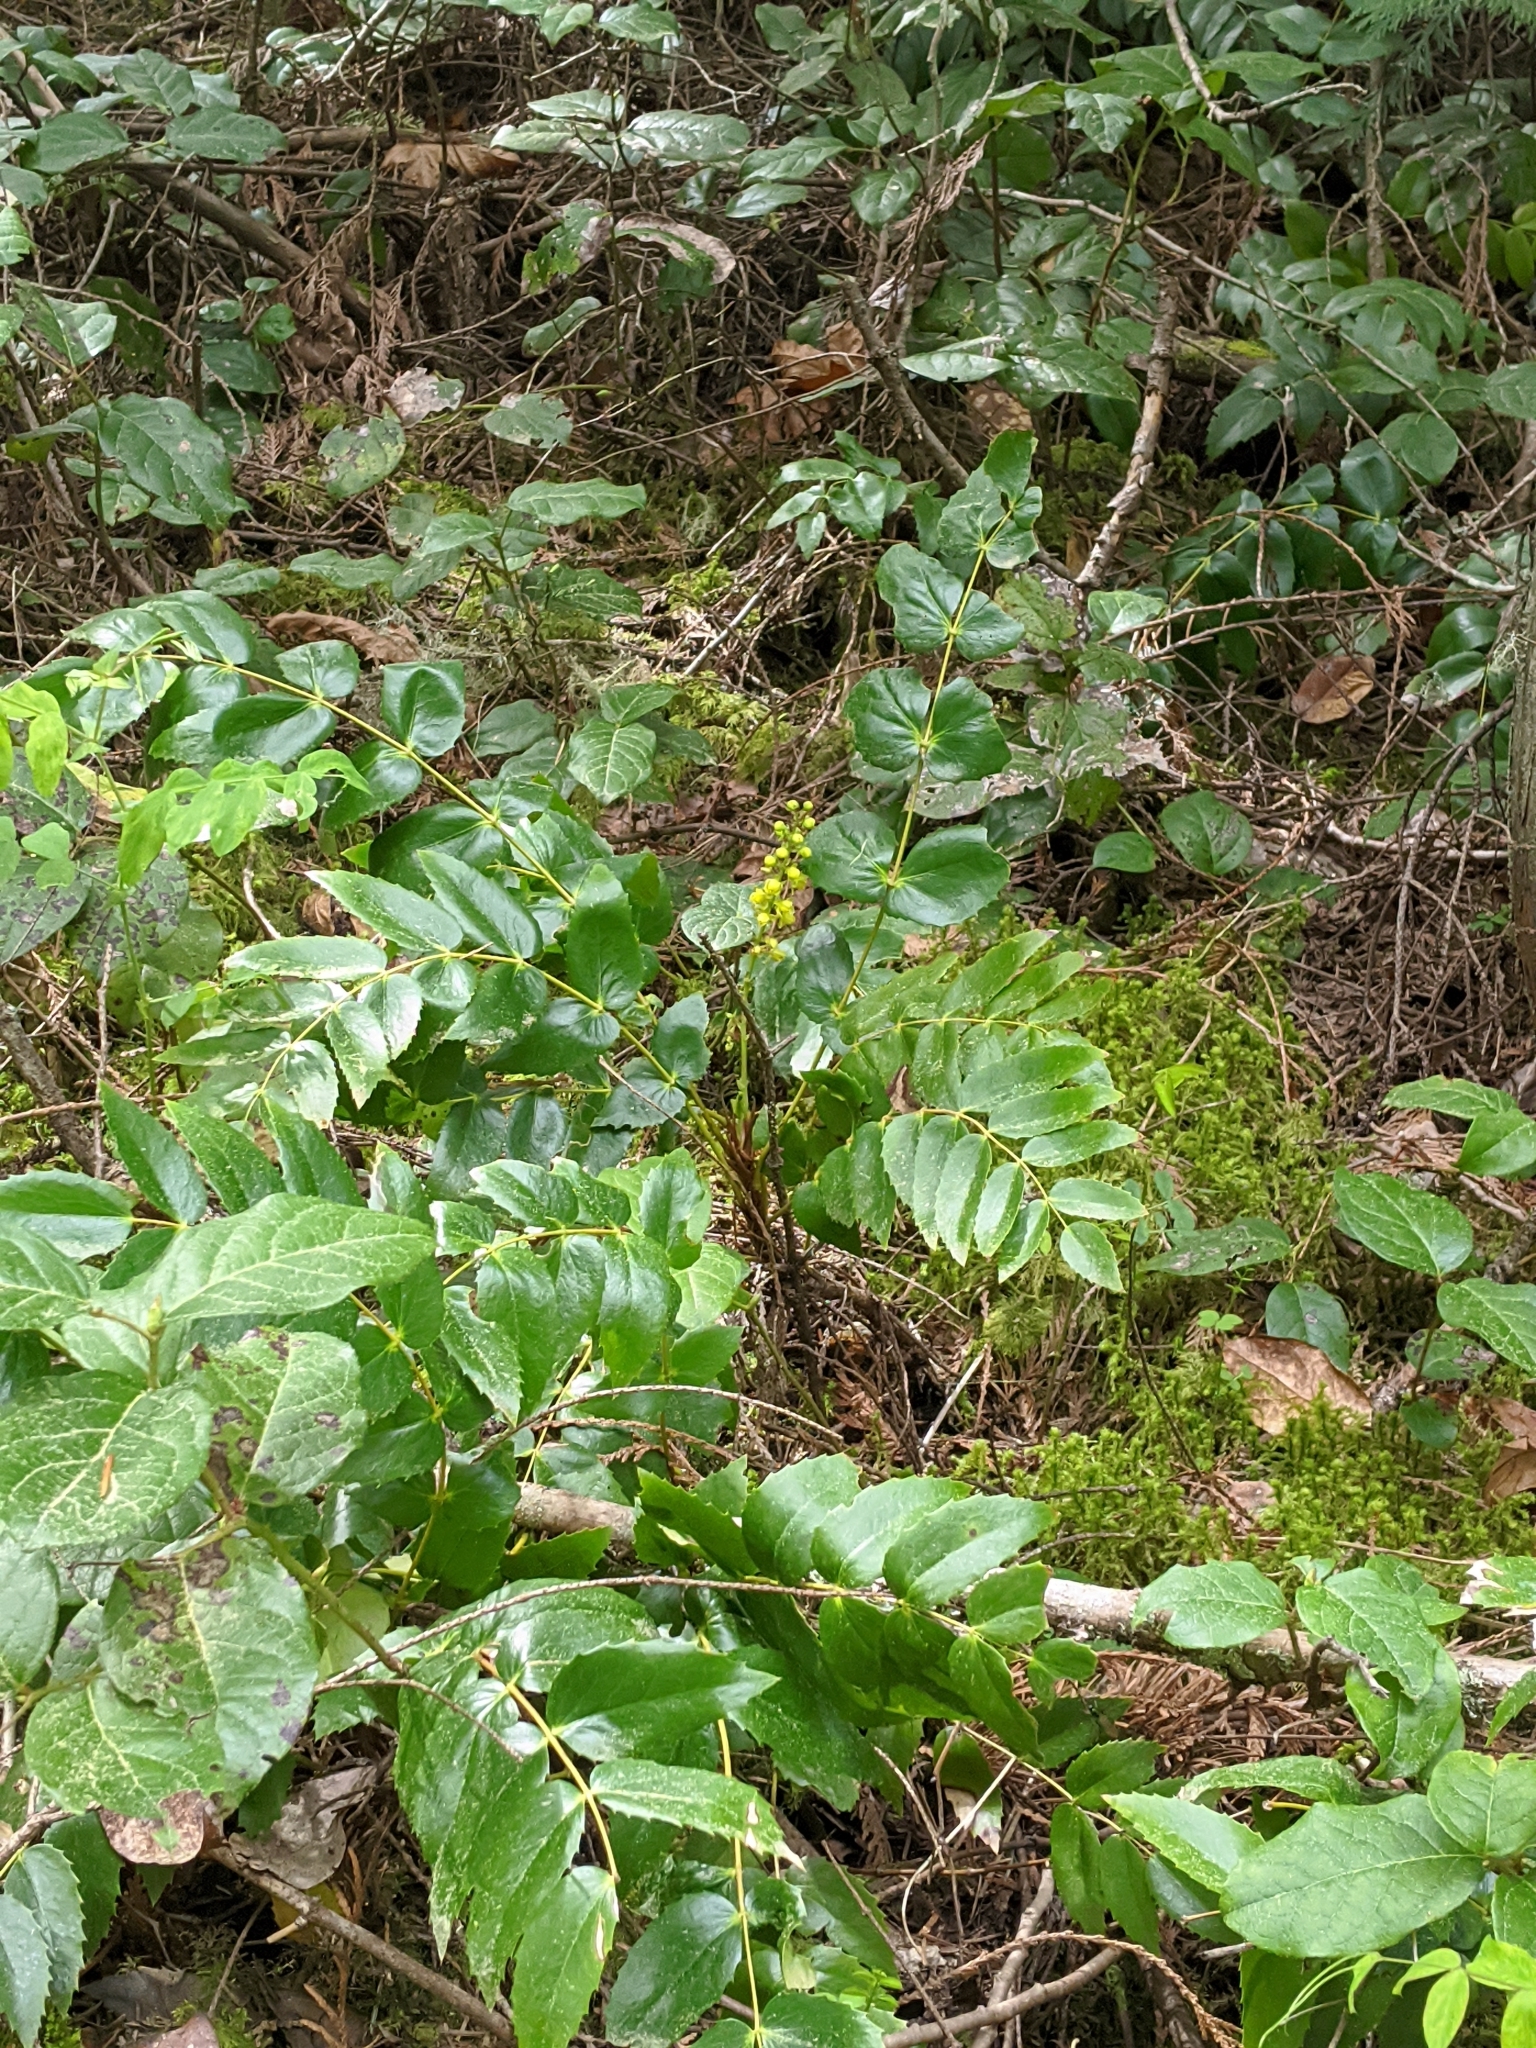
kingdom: Plantae
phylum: Tracheophyta
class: Magnoliopsida
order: Ranunculales
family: Berberidaceae
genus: Mahonia
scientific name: Mahonia nervosa
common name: Cascade oregon-grape
